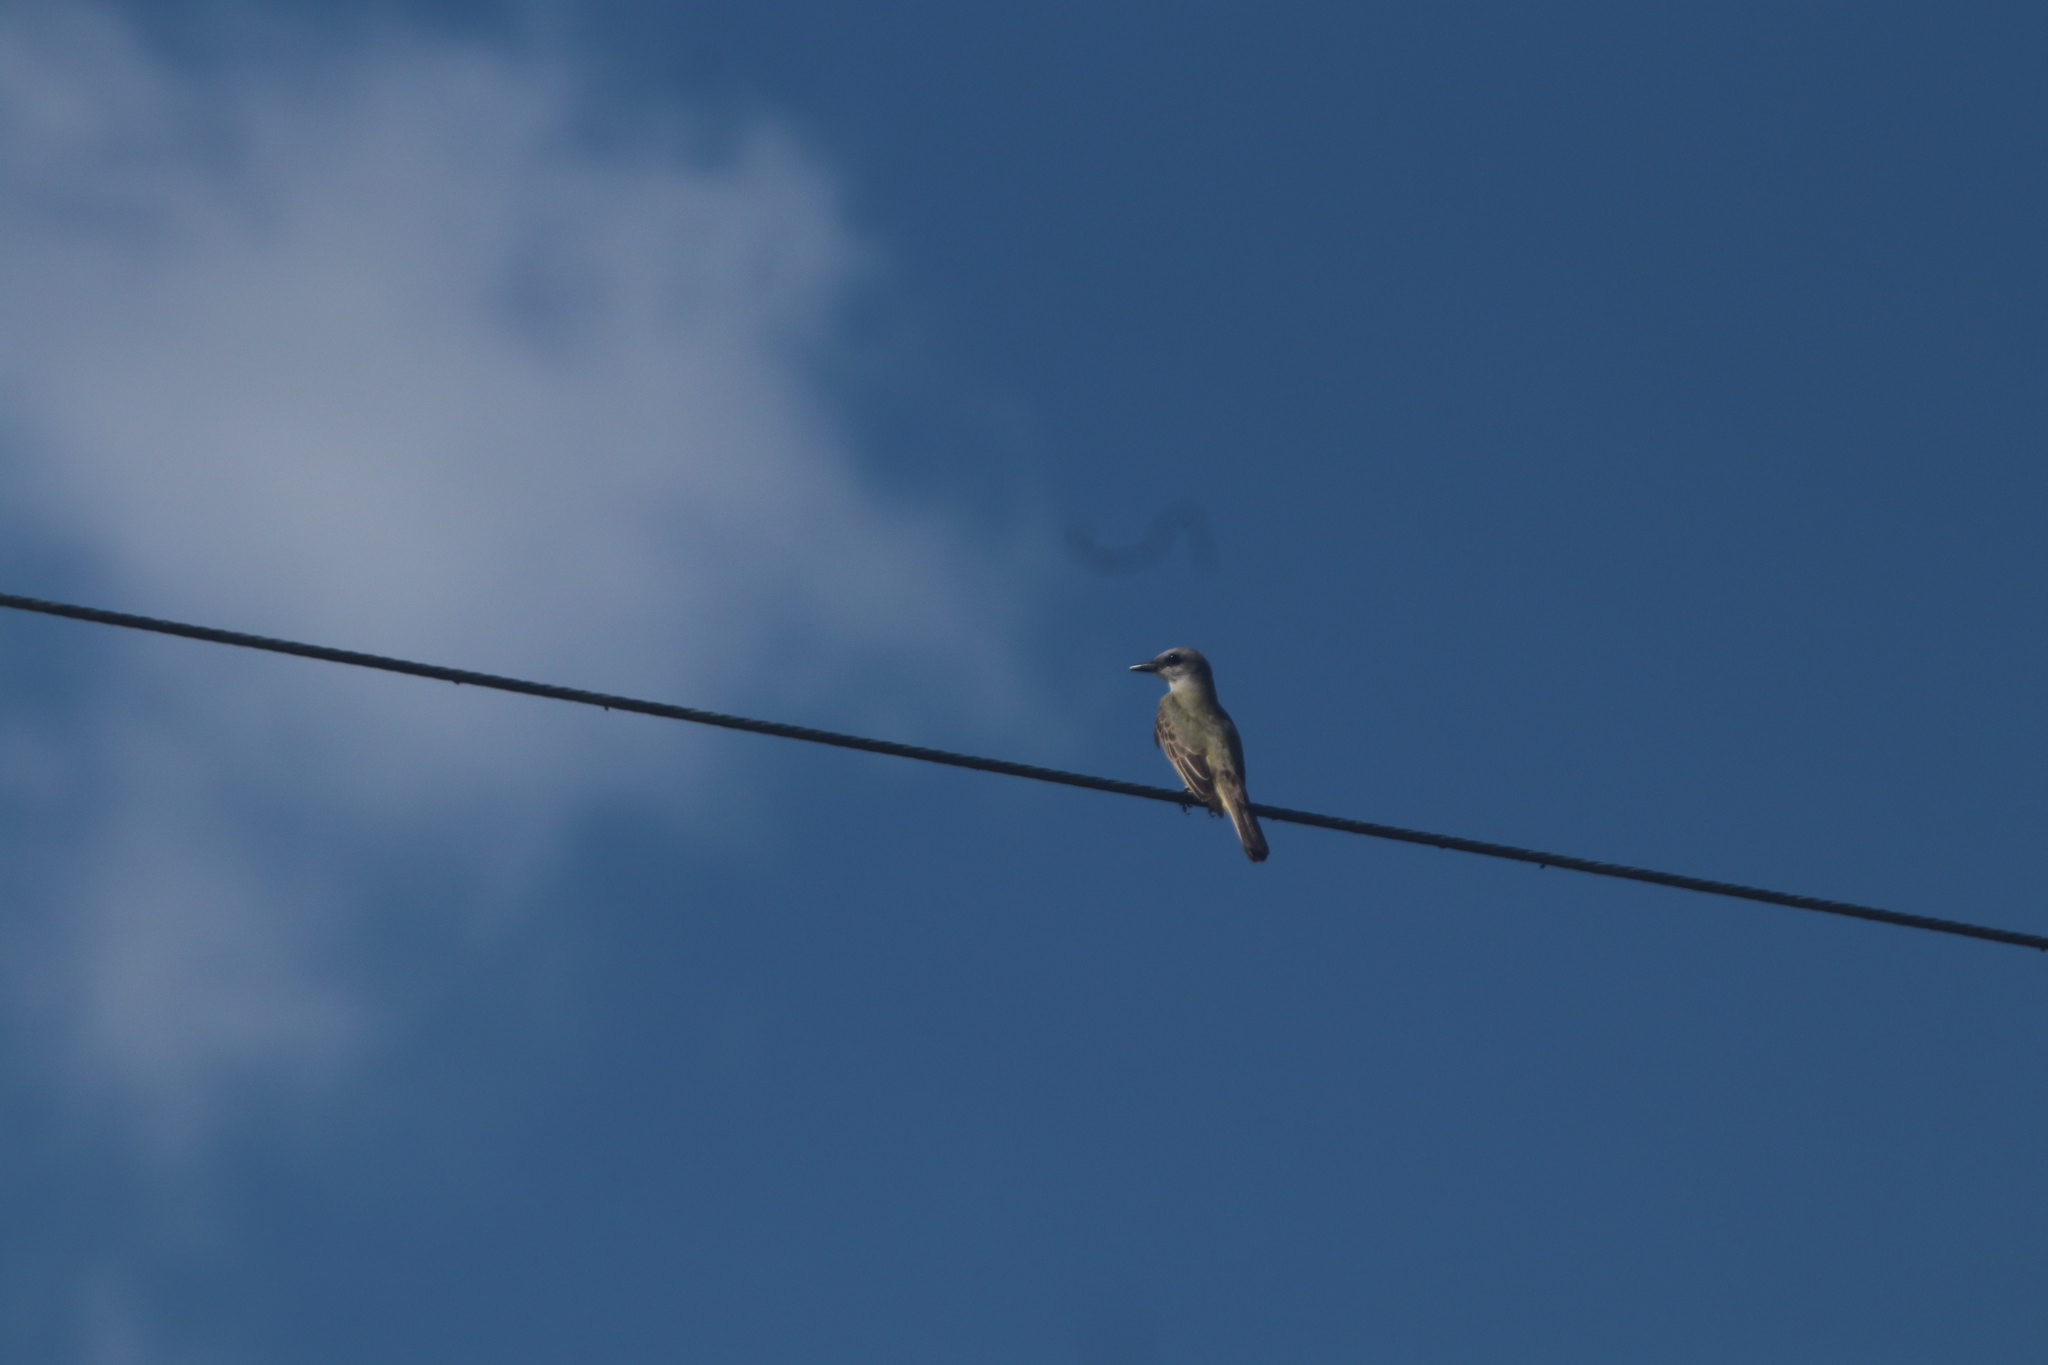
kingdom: Animalia
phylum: Chordata
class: Aves
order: Passeriformes
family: Tyrannidae
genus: Tyrannus
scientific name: Tyrannus melancholicus
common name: Tropical kingbird
